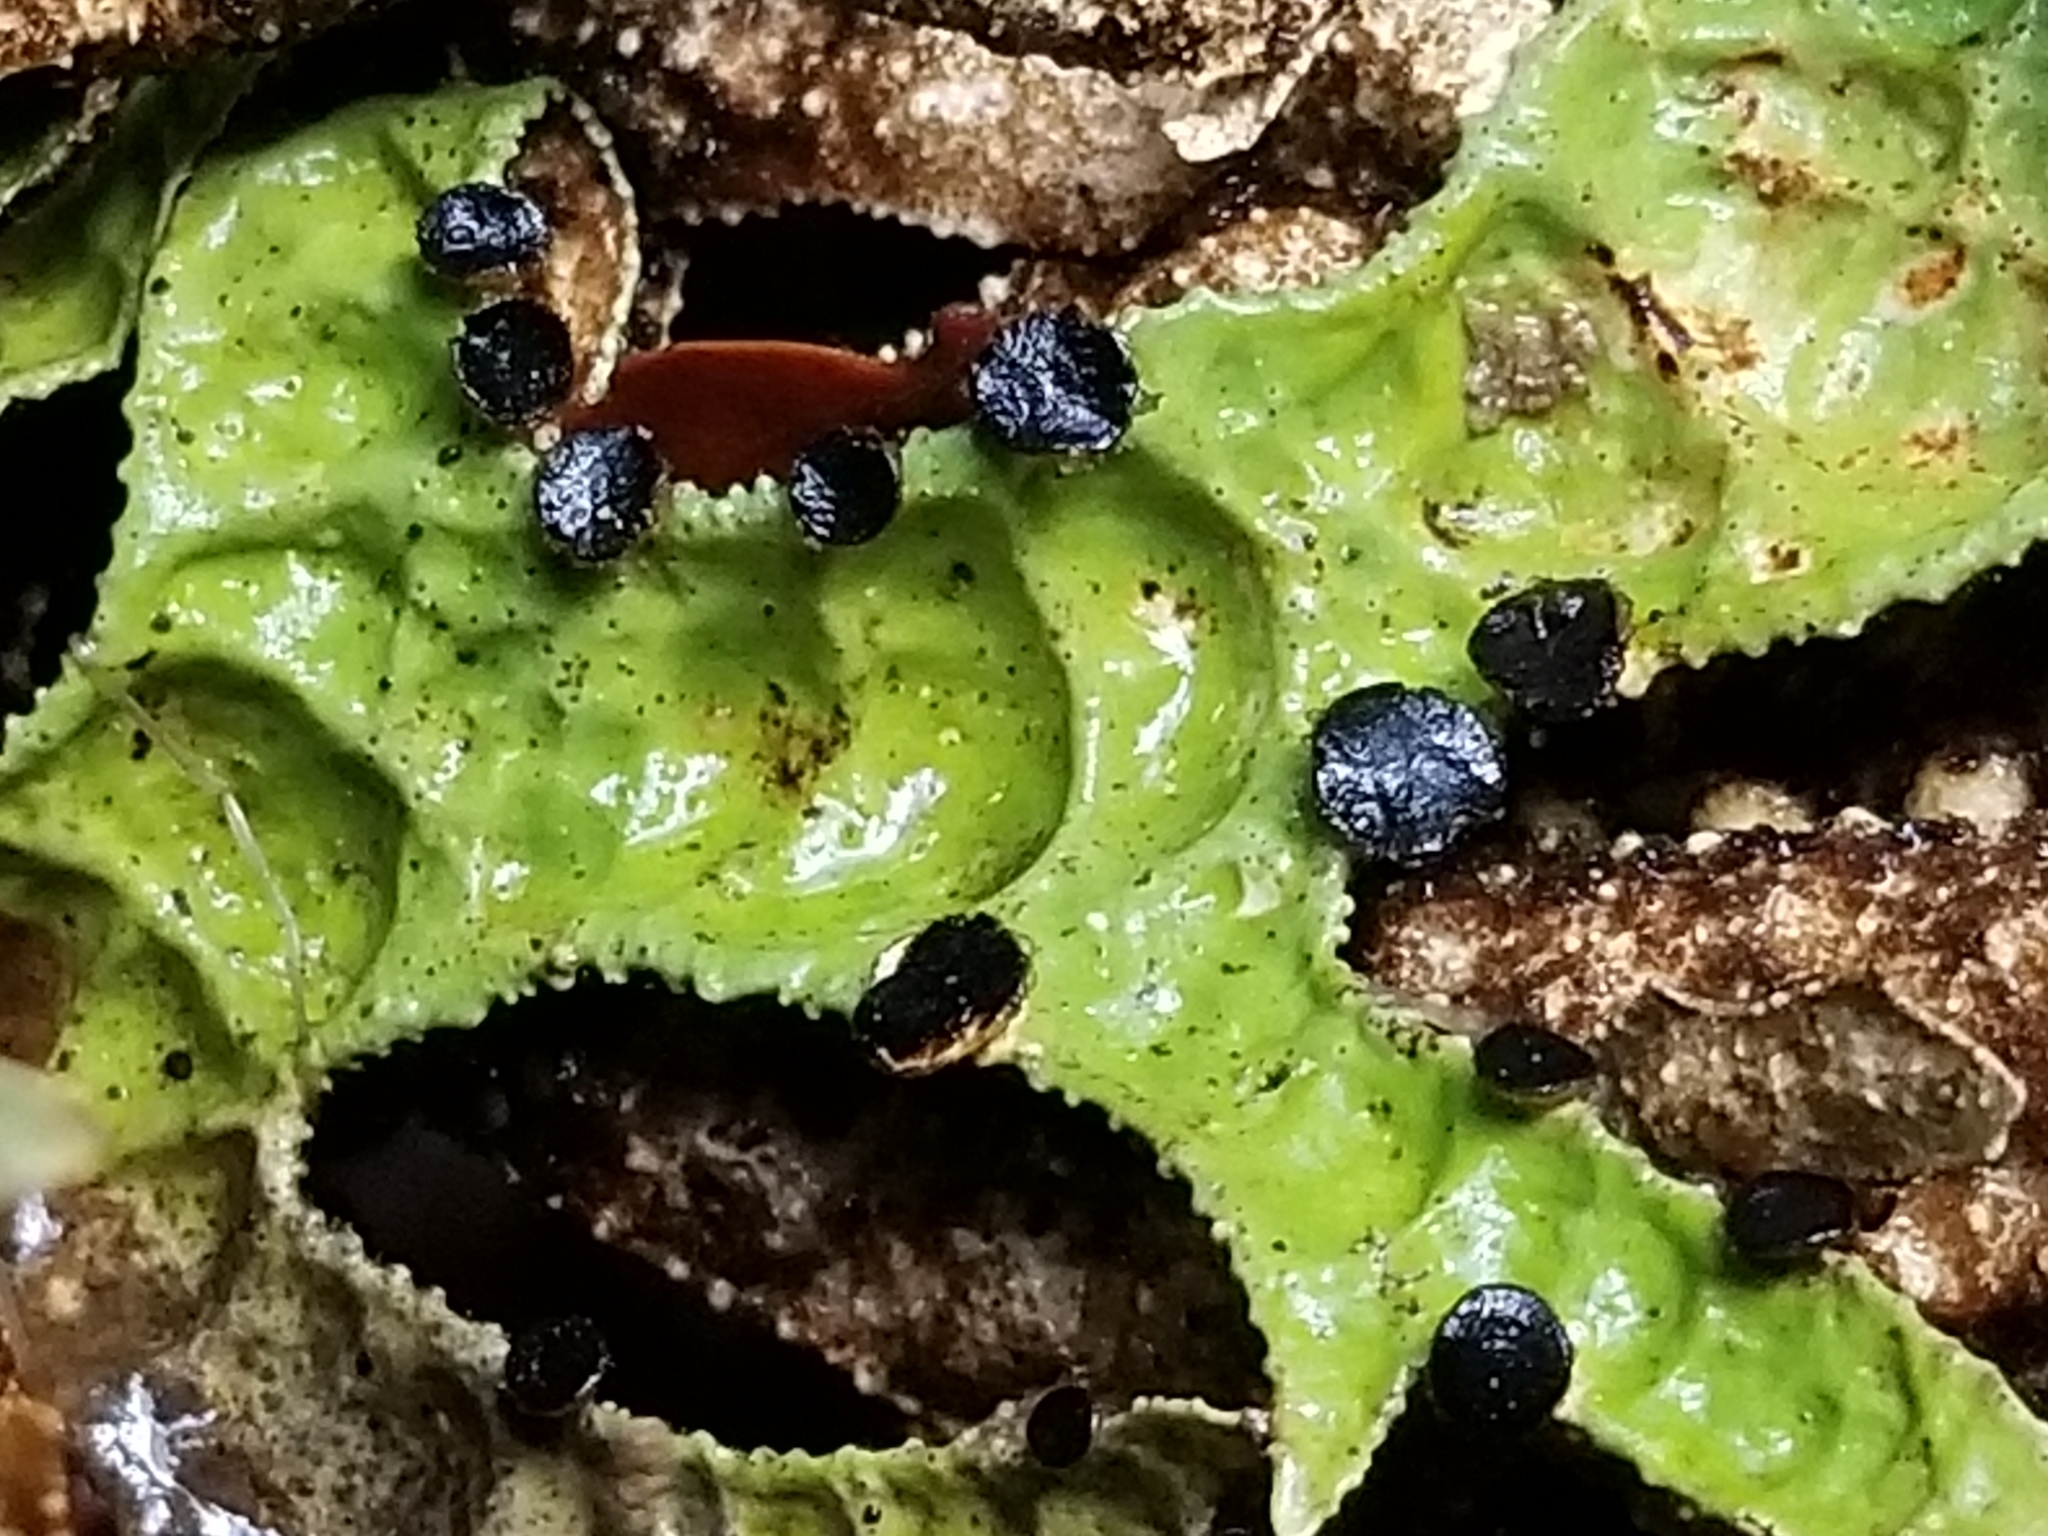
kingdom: Fungi
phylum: Ascomycota
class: Lecanoromycetes
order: Peltigerales
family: Lobariaceae
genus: Pseudocyphellaria
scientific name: Pseudocyphellaria faveolata
